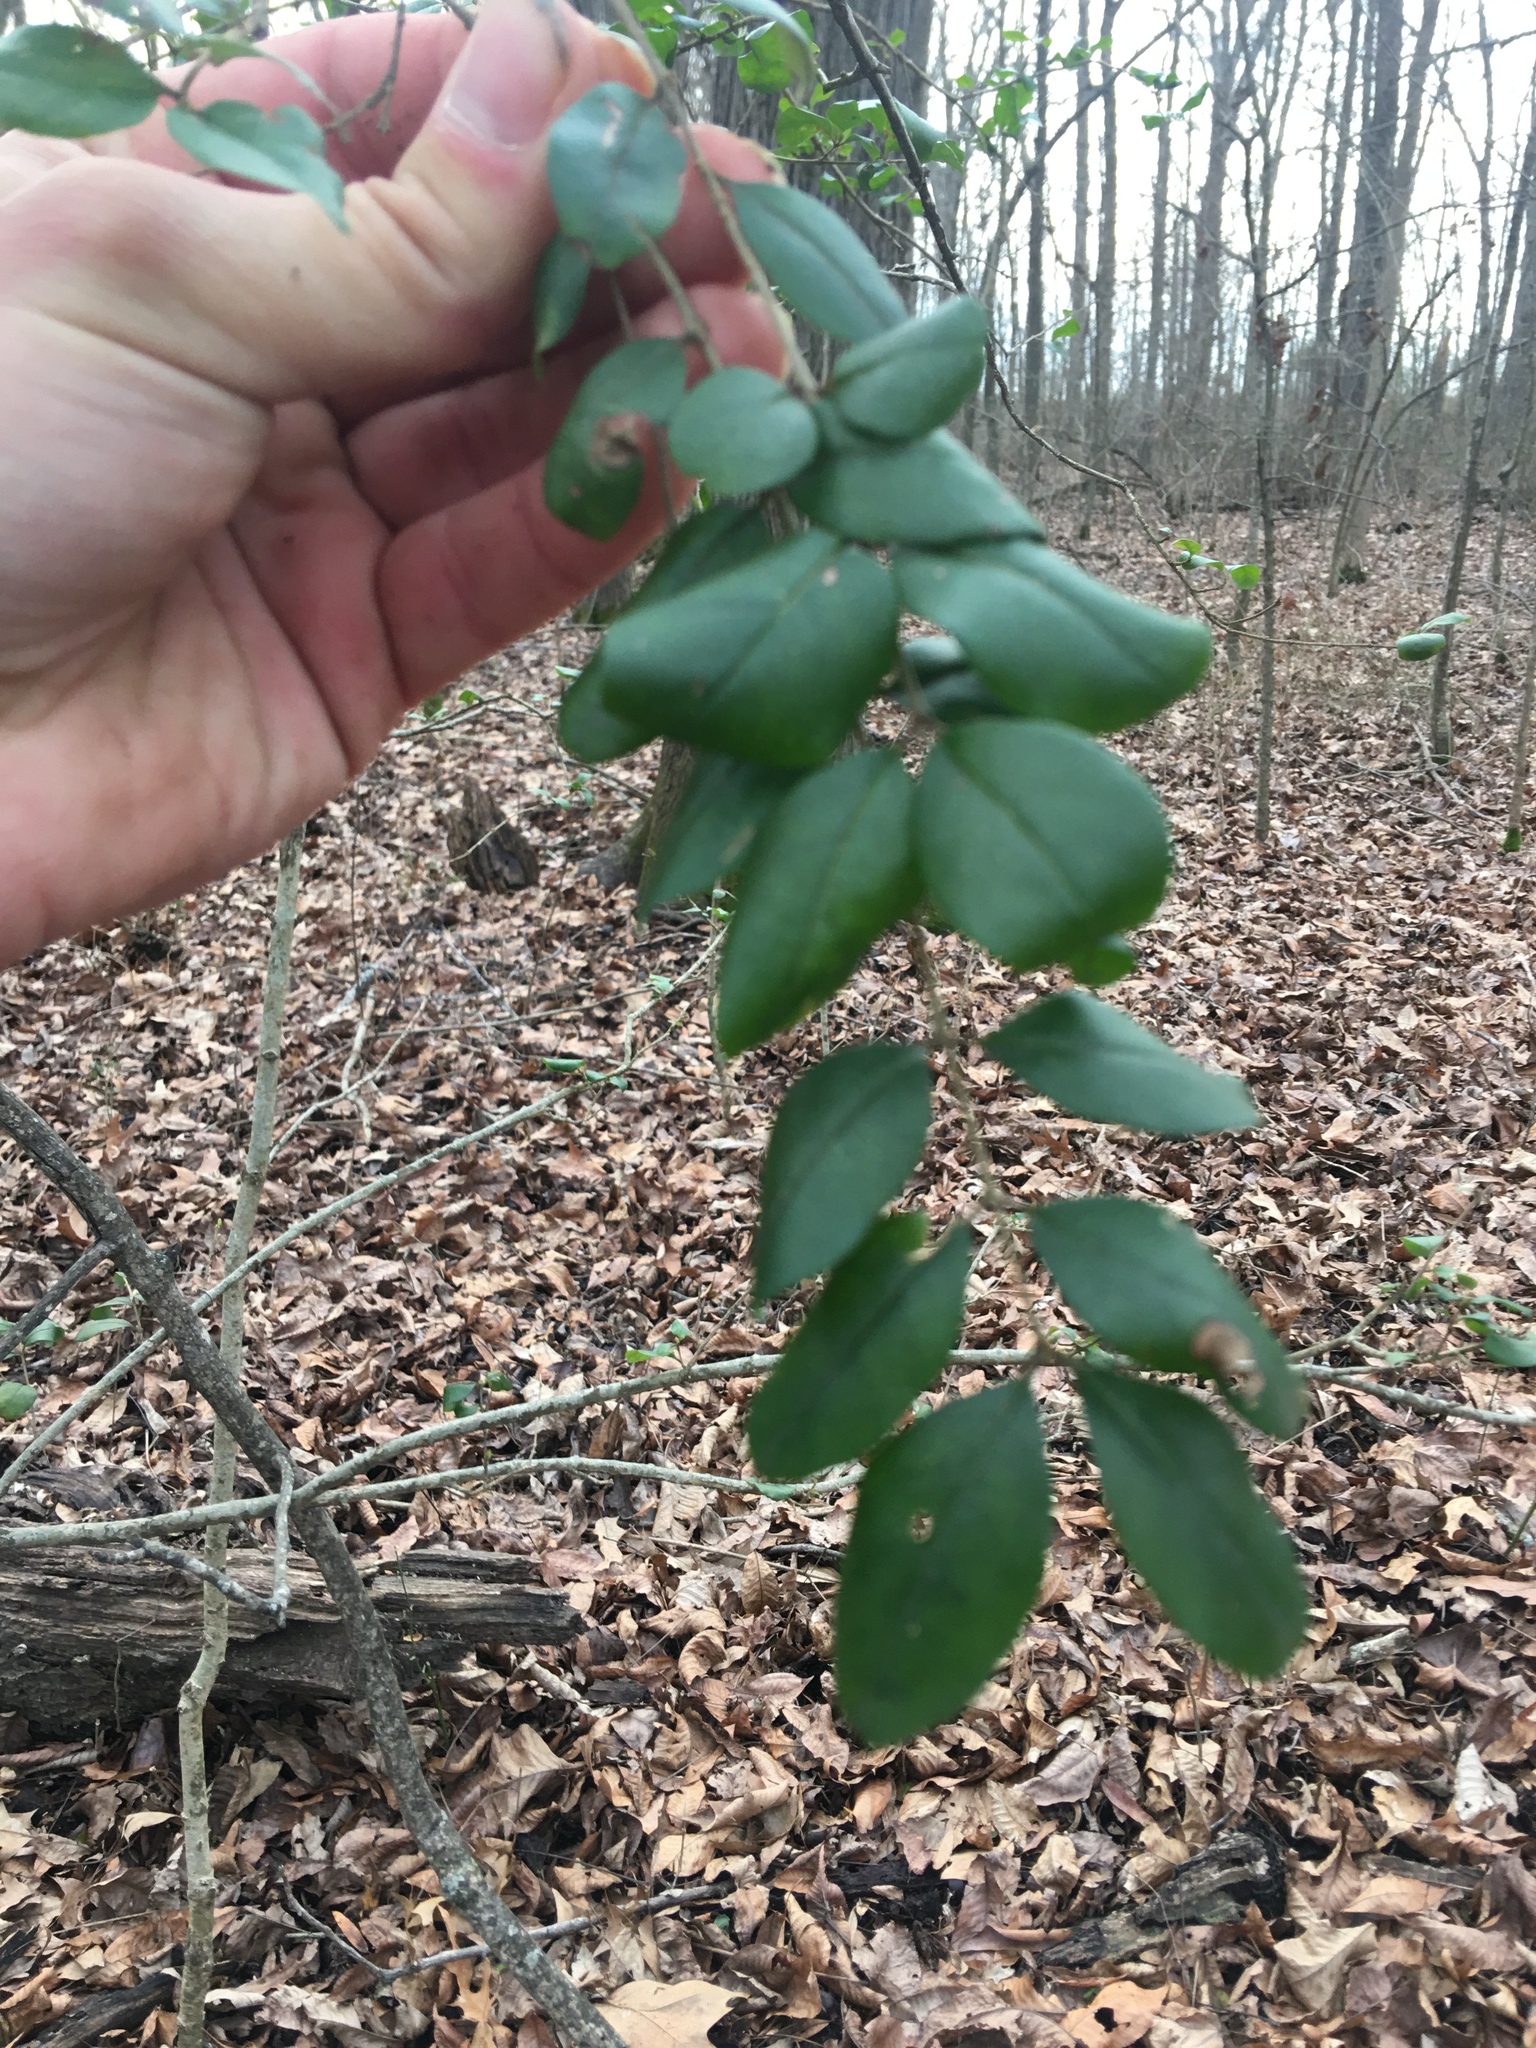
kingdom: Plantae
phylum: Tracheophyta
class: Magnoliopsida
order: Lamiales
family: Oleaceae
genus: Ligustrum
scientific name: Ligustrum sinense
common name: Chinese privet
